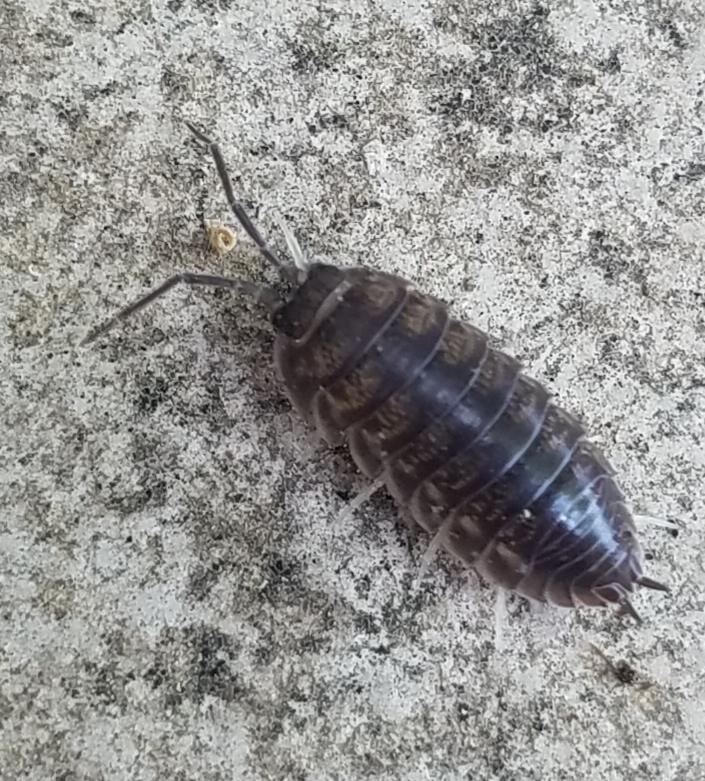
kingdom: Animalia
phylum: Arthropoda
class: Malacostraca
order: Isopoda
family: Cylisticidae
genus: Cylisticus
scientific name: Cylisticus convexus
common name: Curly woodlouse
